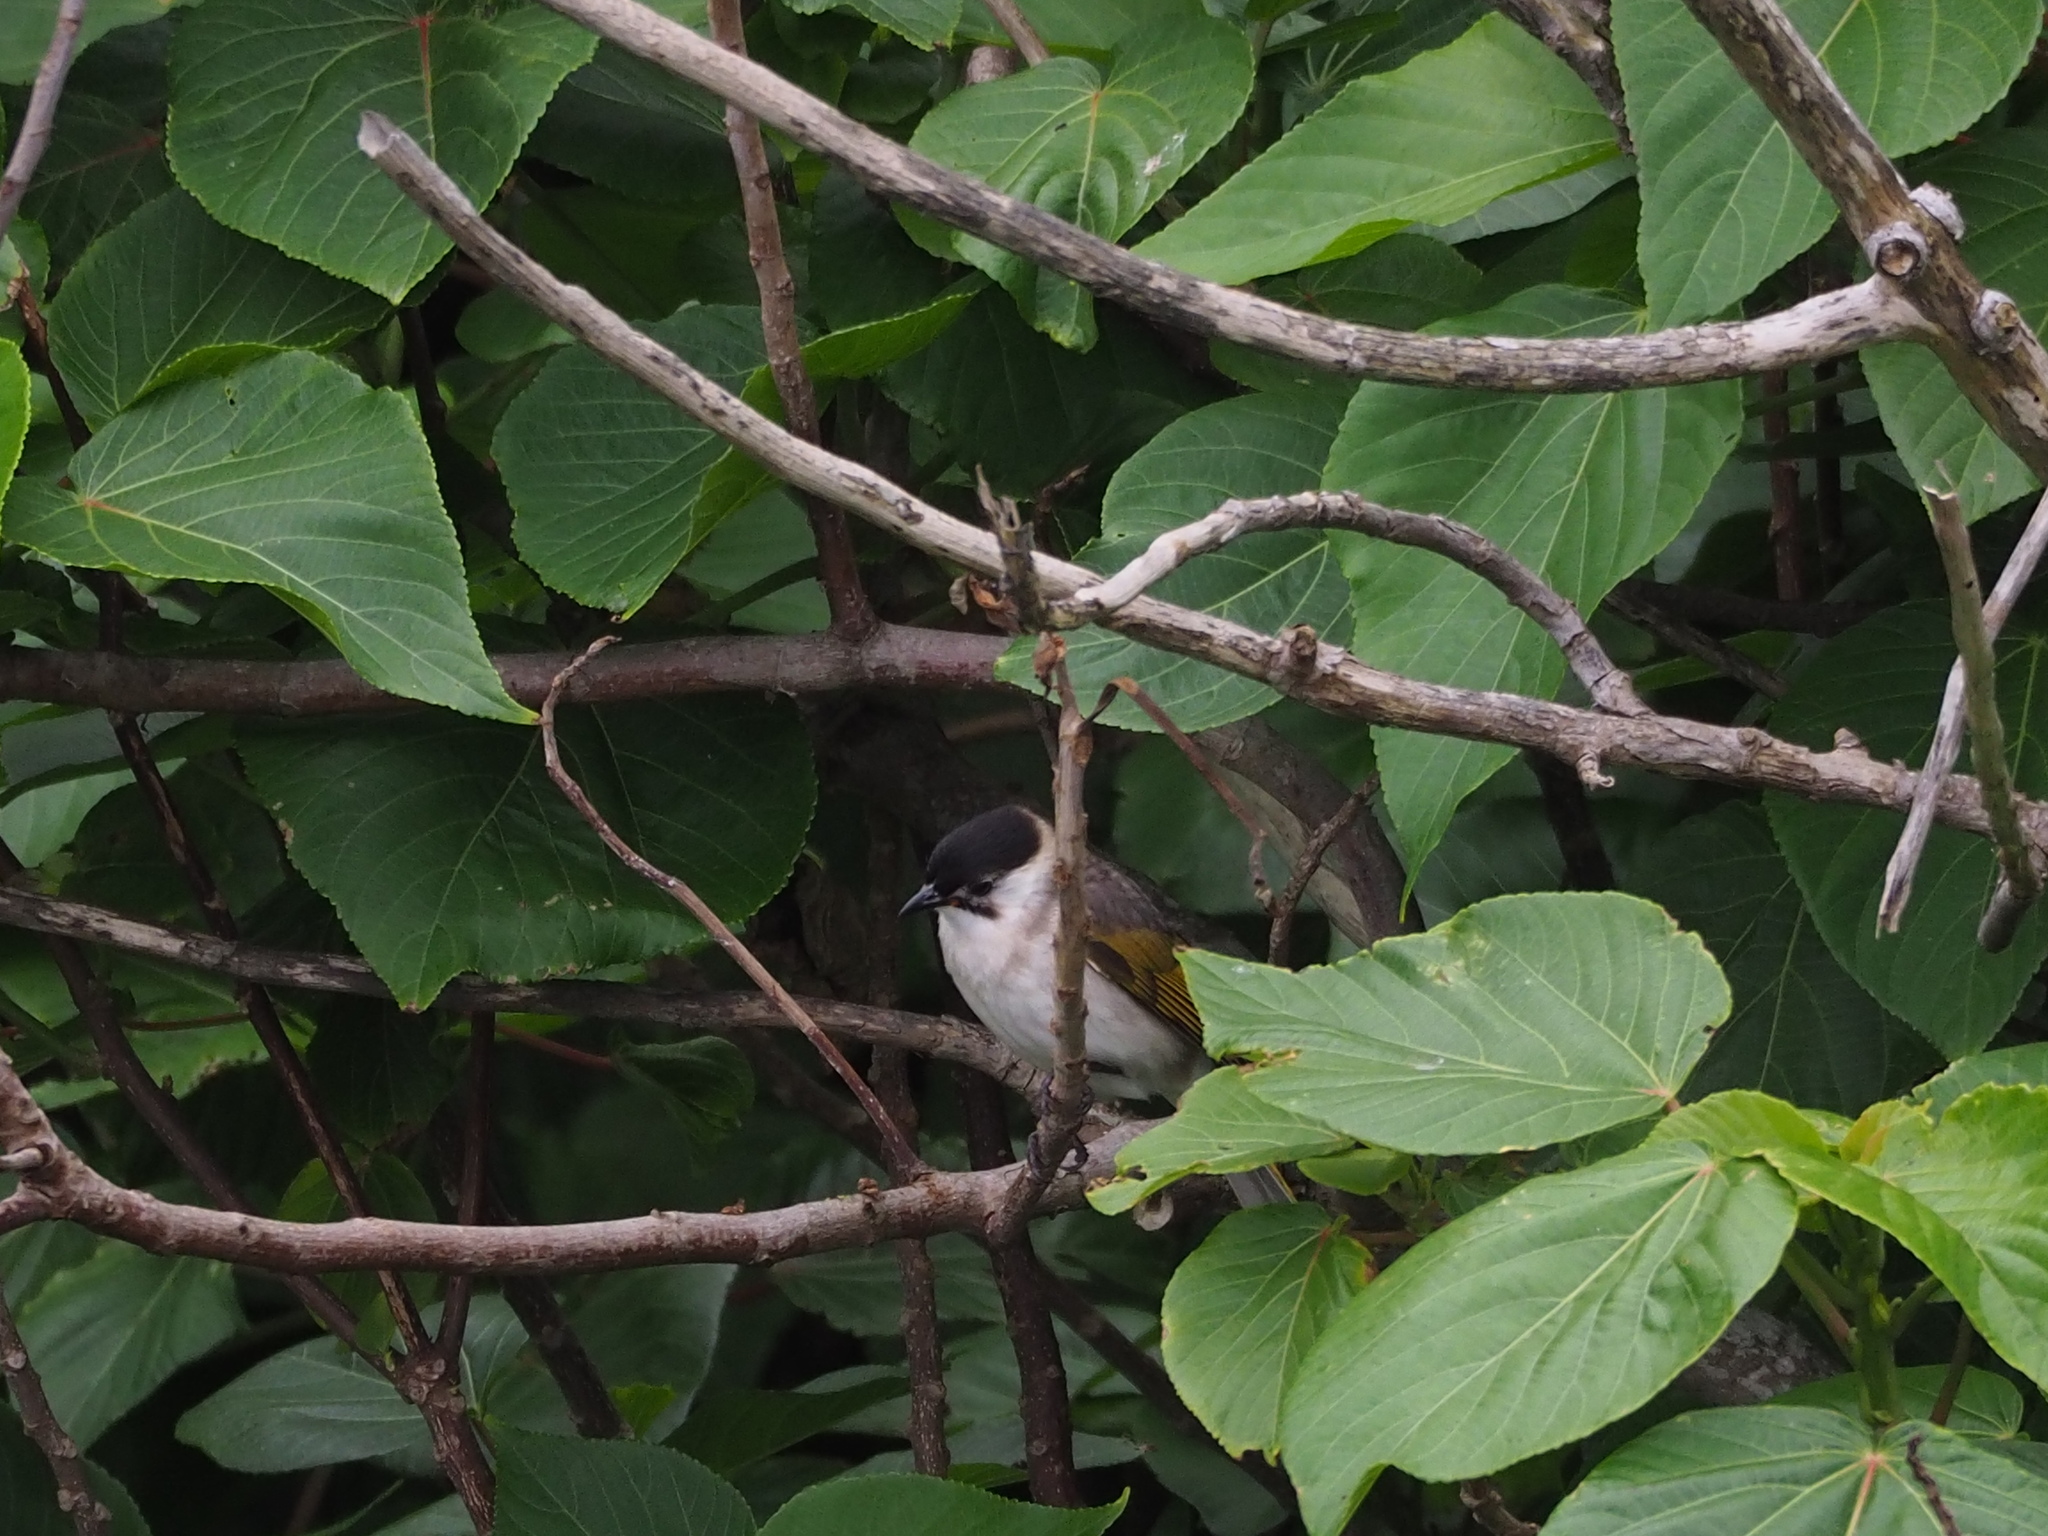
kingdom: Animalia
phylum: Chordata
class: Aves
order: Passeriformes
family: Pycnonotidae
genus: Pycnonotus
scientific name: Pycnonotus taivanus
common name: Styan's bulbul
